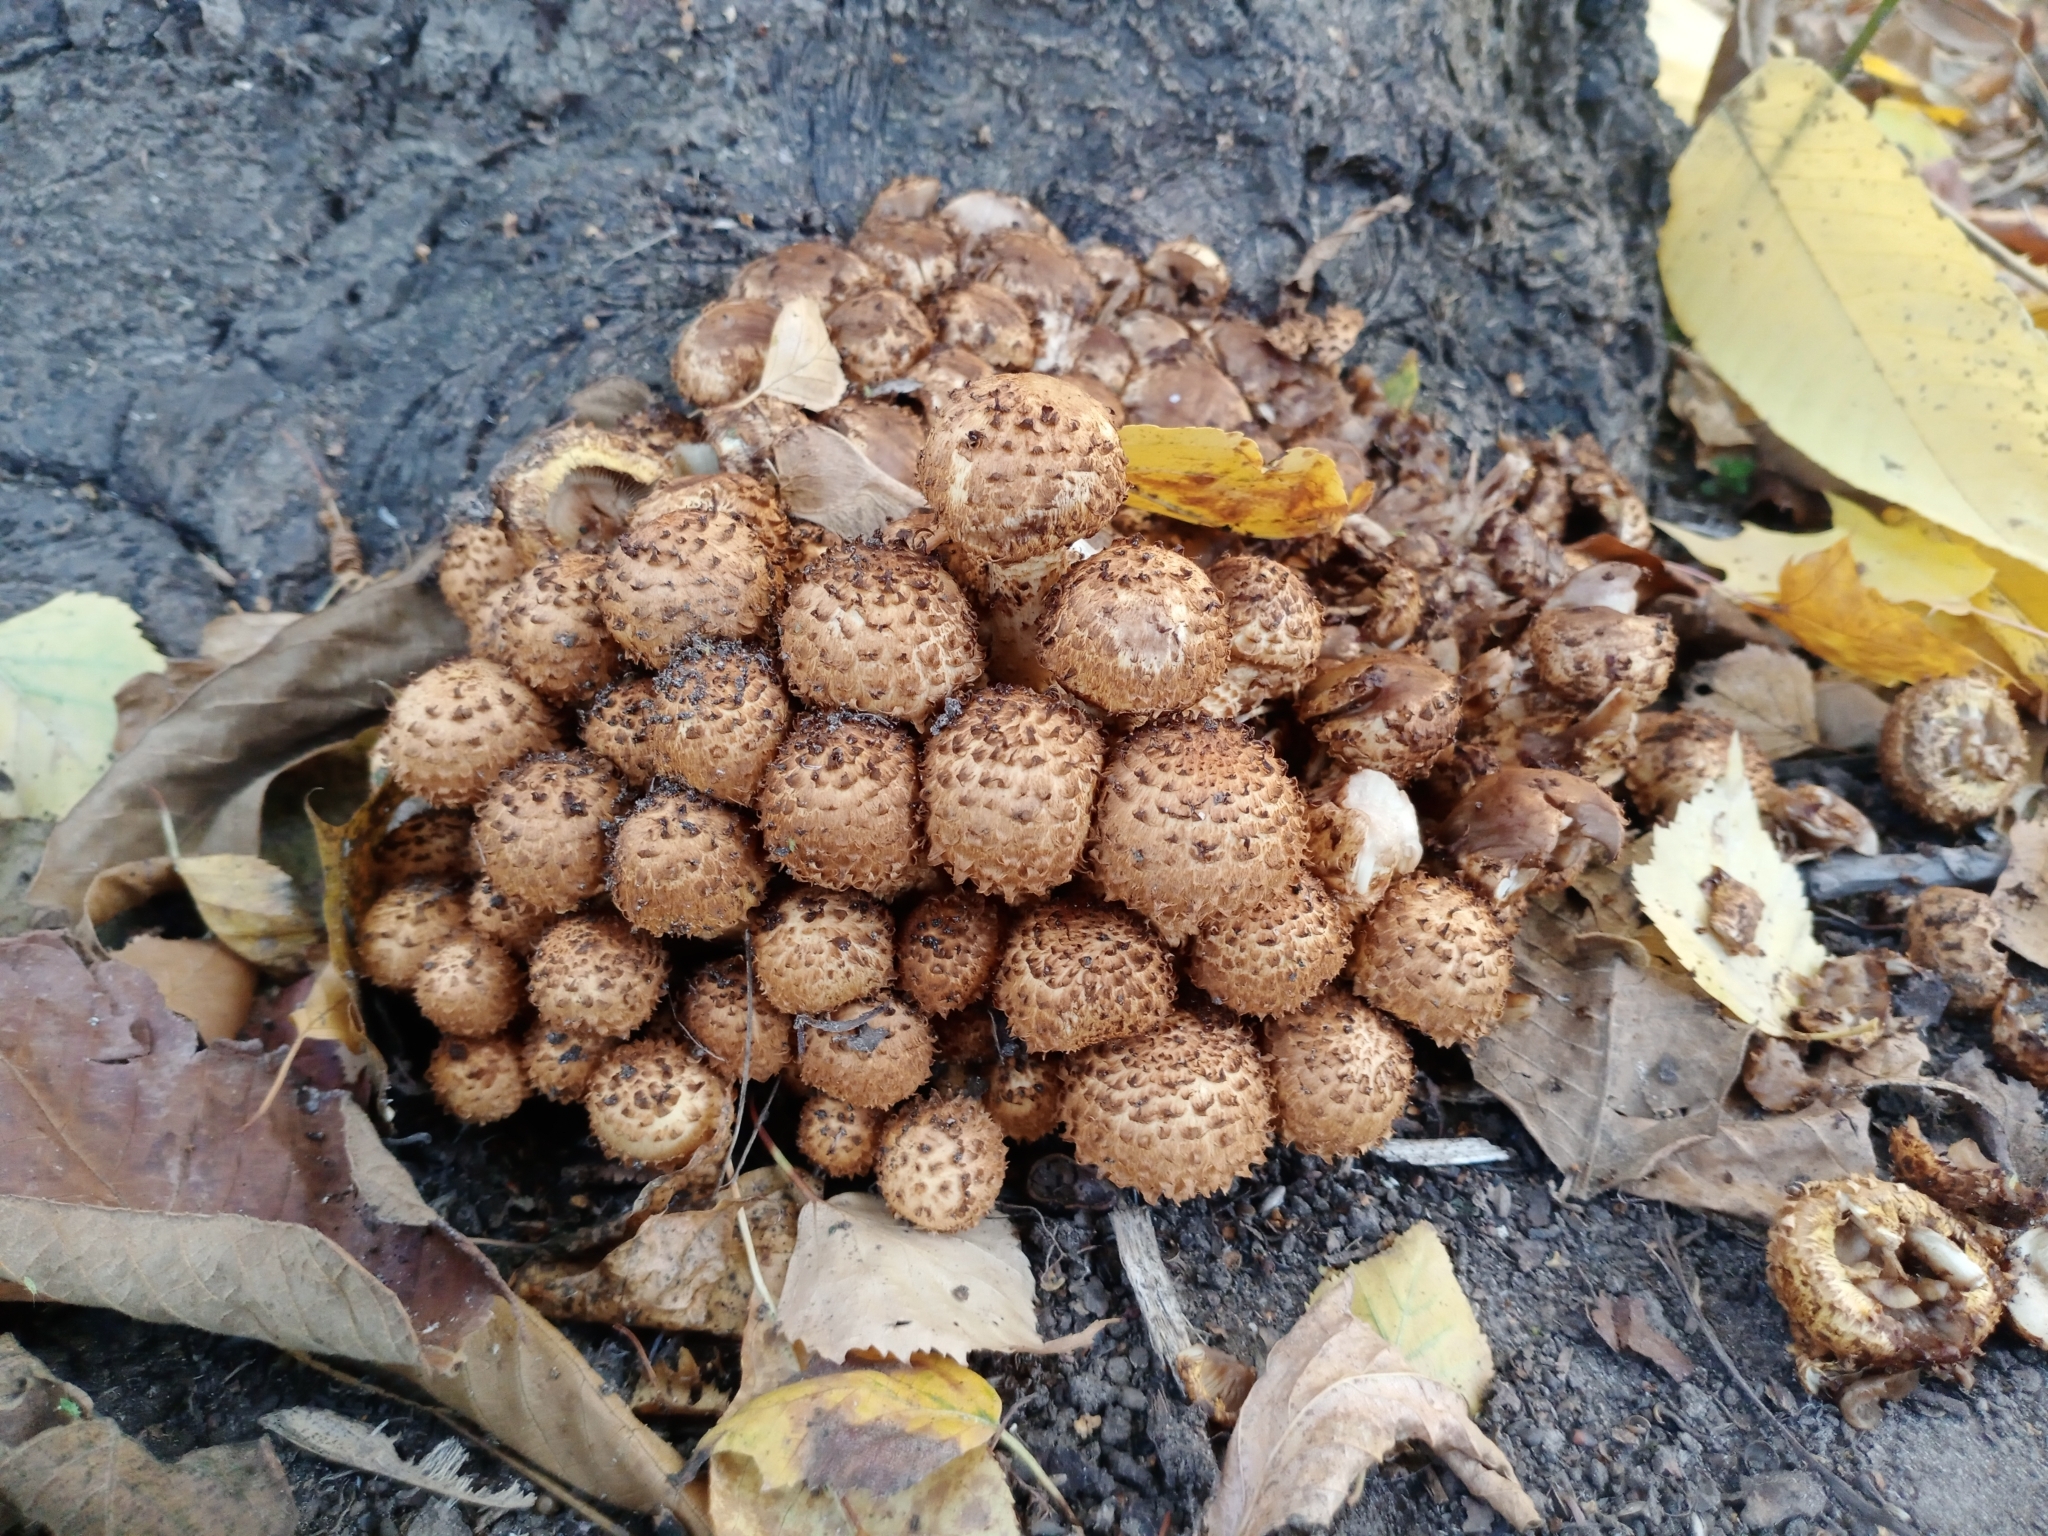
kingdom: Fungi
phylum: Basidiomycota
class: Agaricomycetes
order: Agaricales
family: Strophariaceae
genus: Pholiota
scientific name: Pholiota squarrosa
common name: Shaggy pholiota
